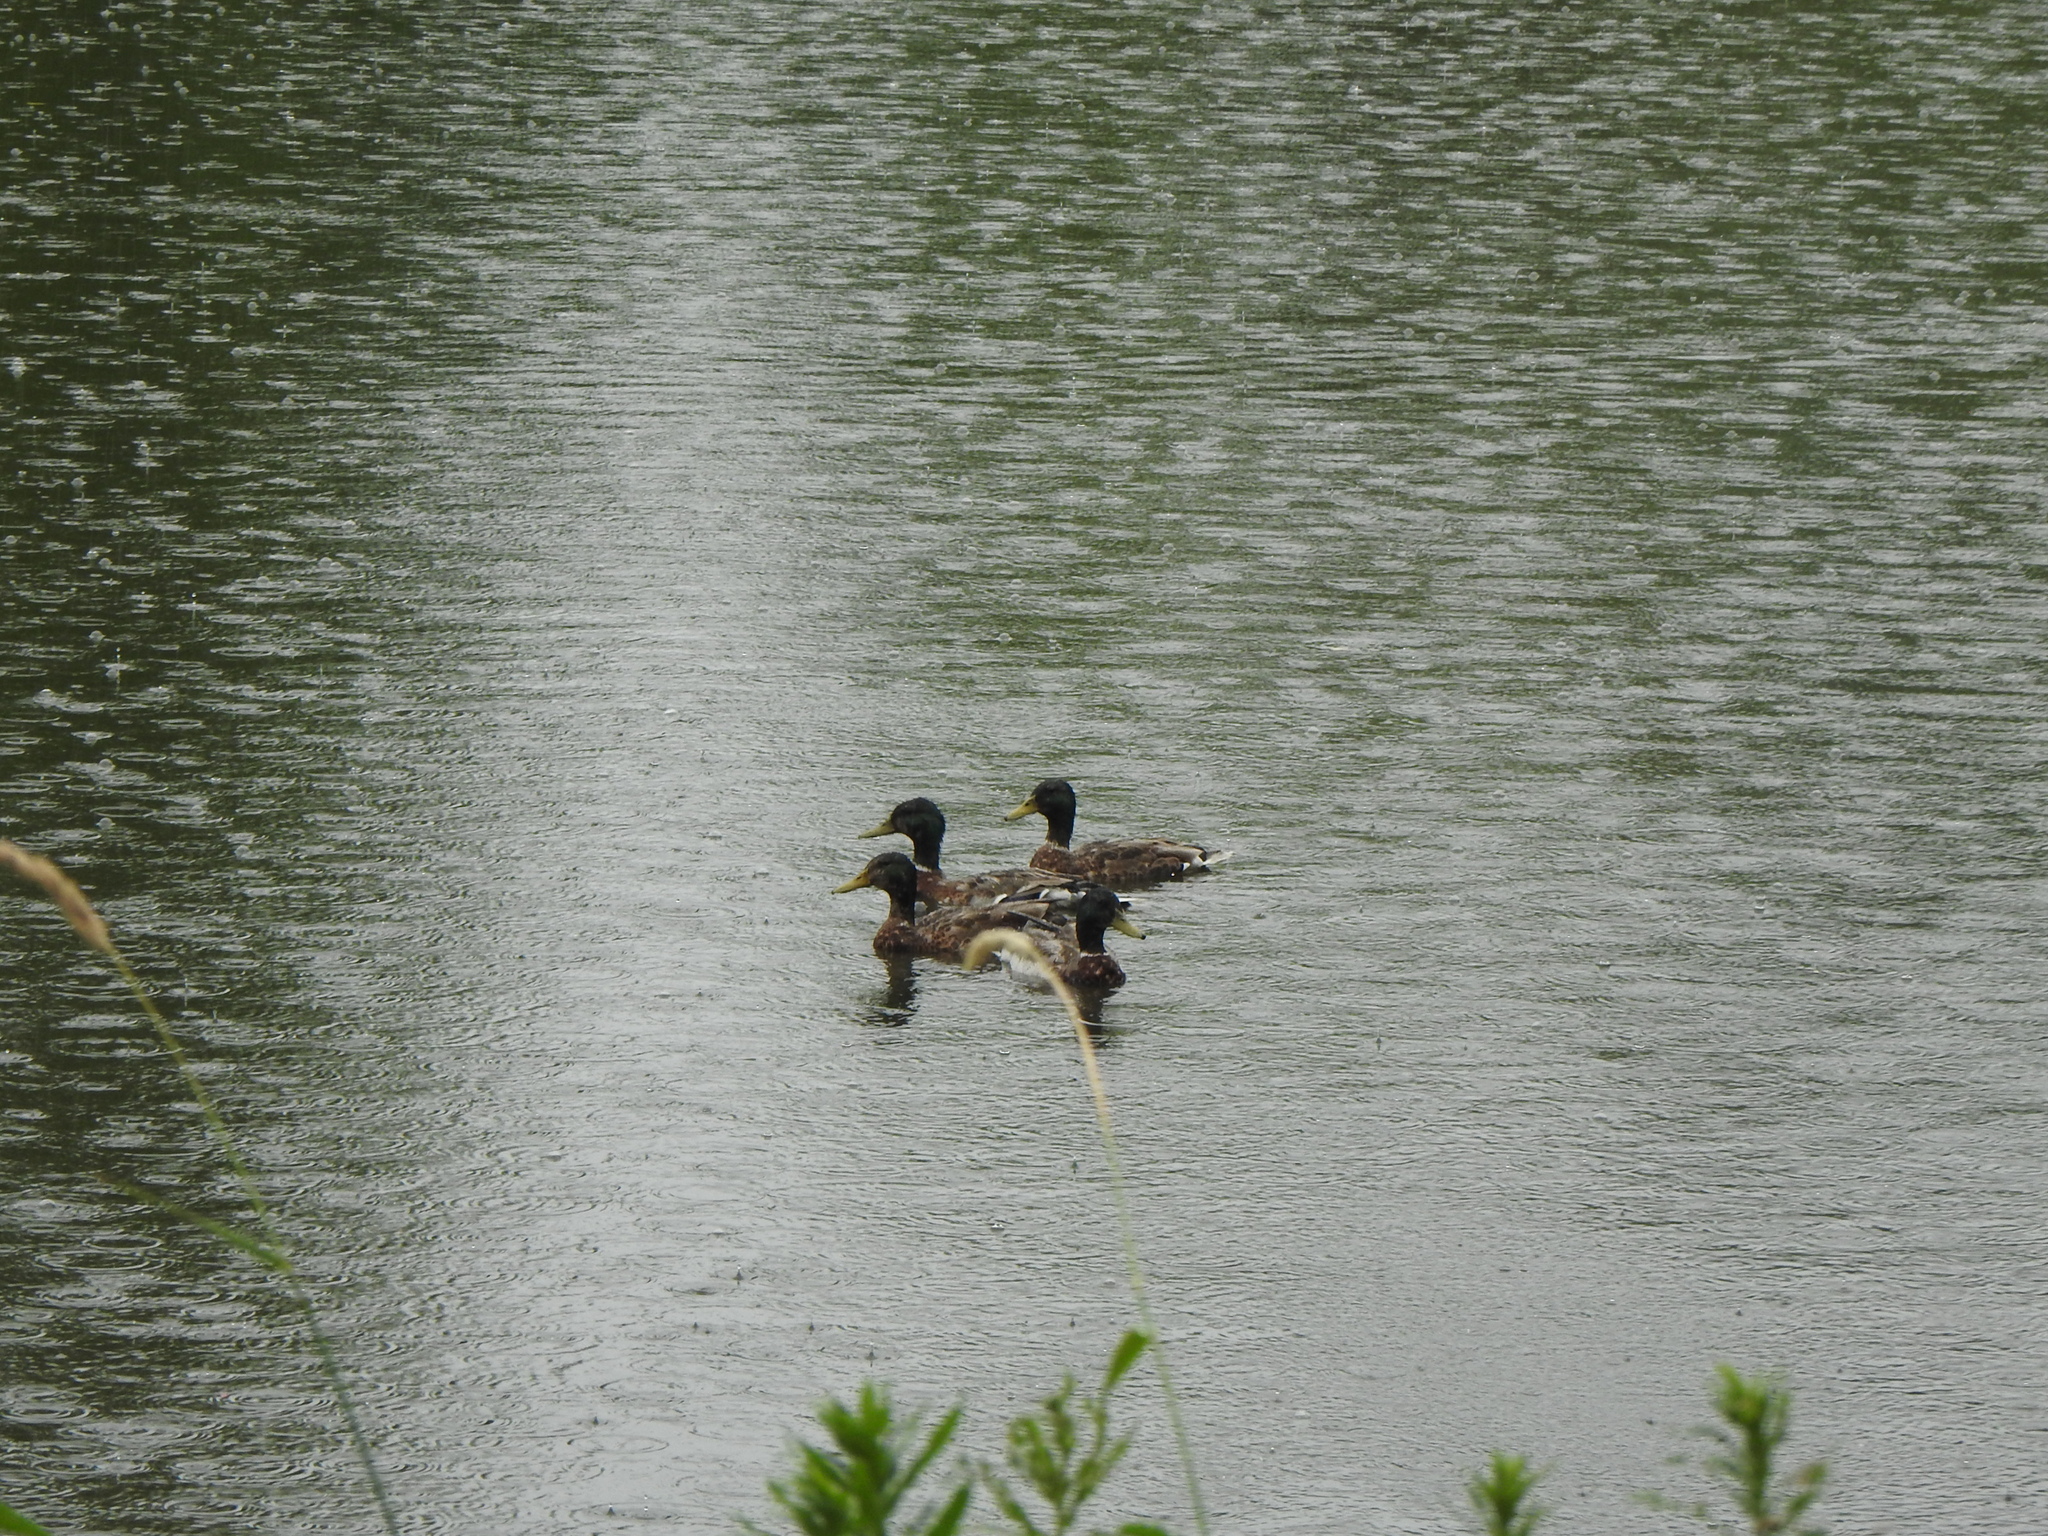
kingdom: Animalia
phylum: Chordata
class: Aves
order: Anseriformes
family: Anatidae
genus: Anas
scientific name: Anas platyrhynchos
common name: Mallard
